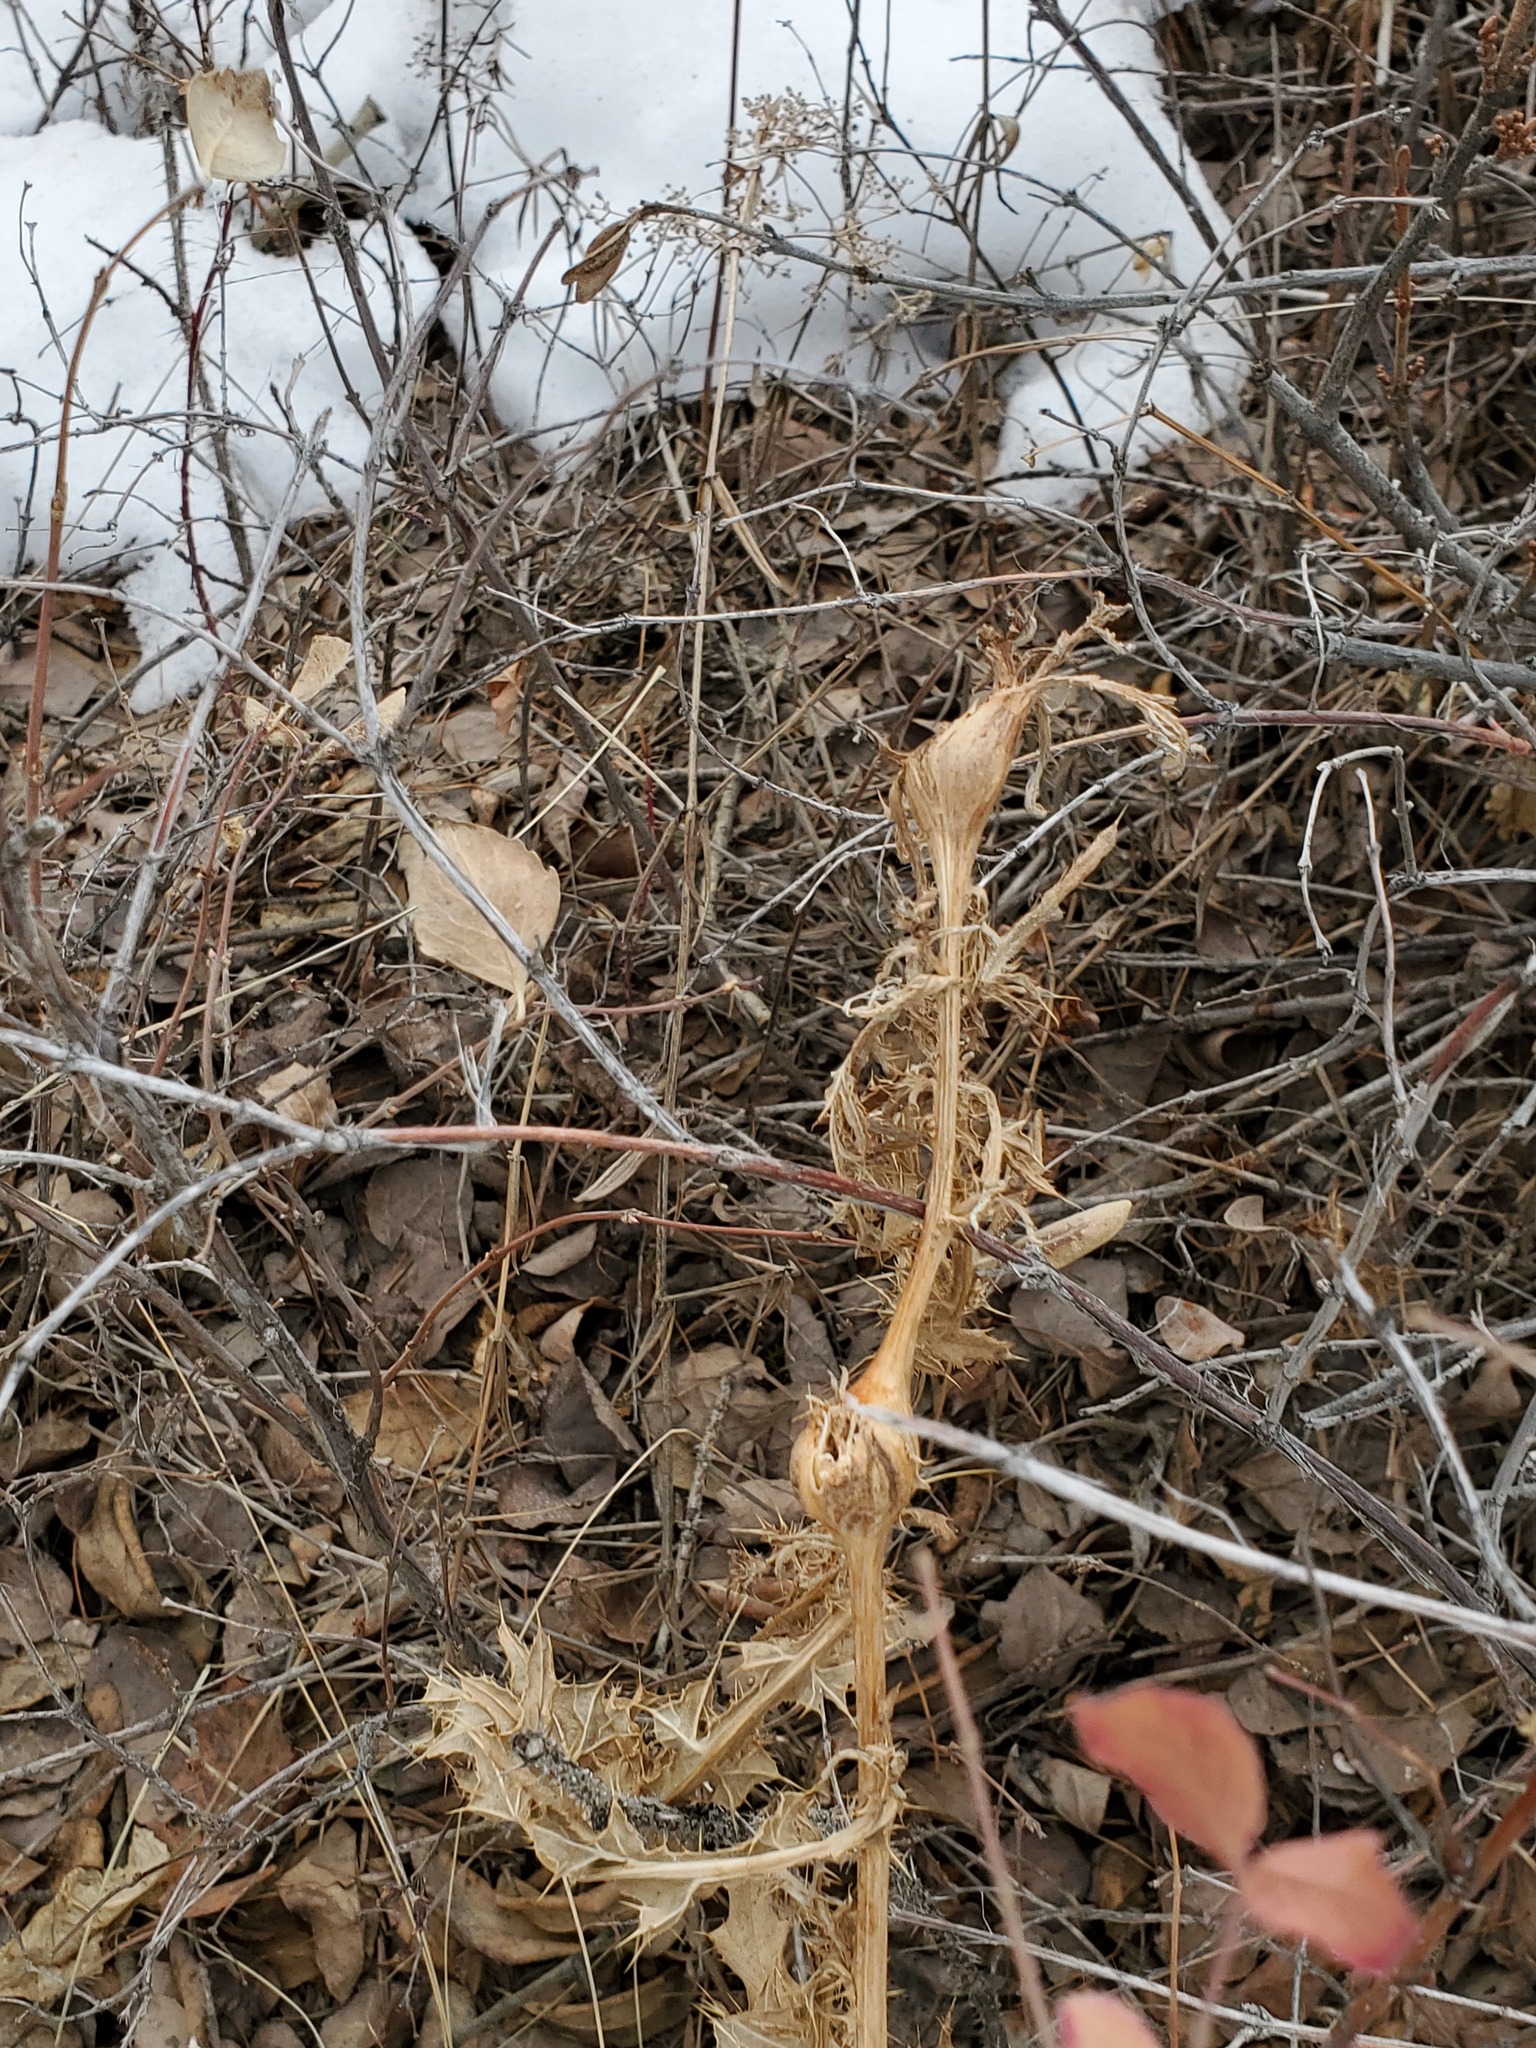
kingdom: Plantae
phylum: Tracheophyta
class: Magnoliopsida
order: Asterales
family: Asteraceae
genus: Cirsium
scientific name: Cirsium arvense
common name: Creeping thistle
